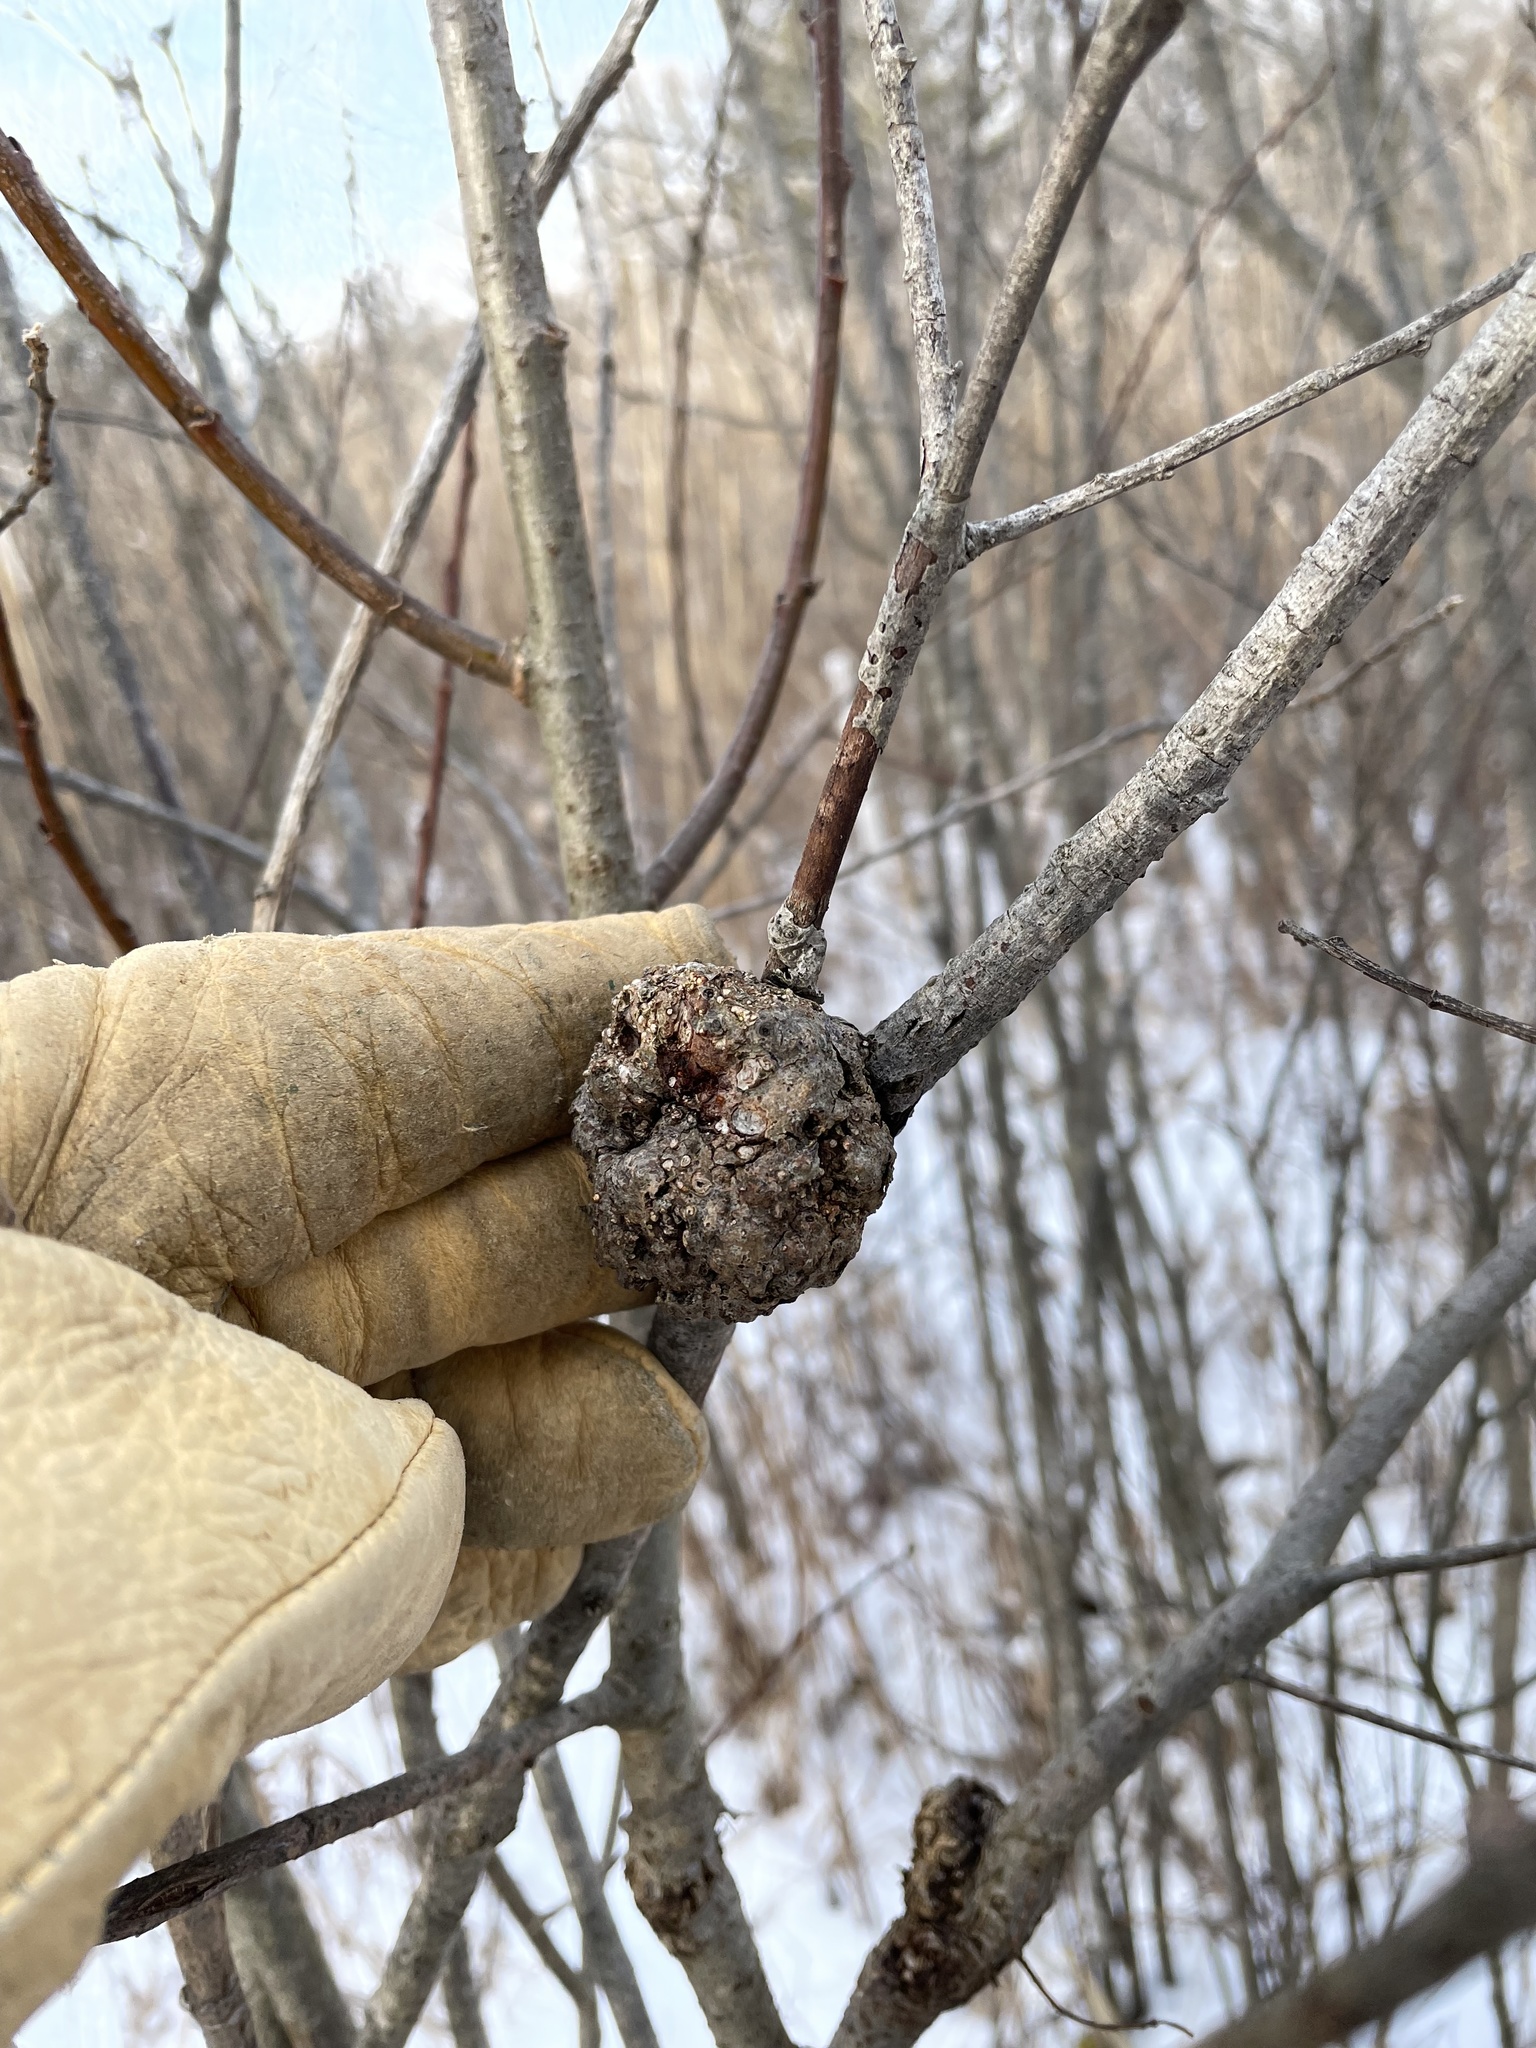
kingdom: Bacteria
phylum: Proteobacteria
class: Alphaproteobacteria
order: Rhizobiales
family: Rhizobiaceae
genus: Rhizobium
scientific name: Rhizobium Agrobacterium radiobacter
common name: Bacterial crown gall
